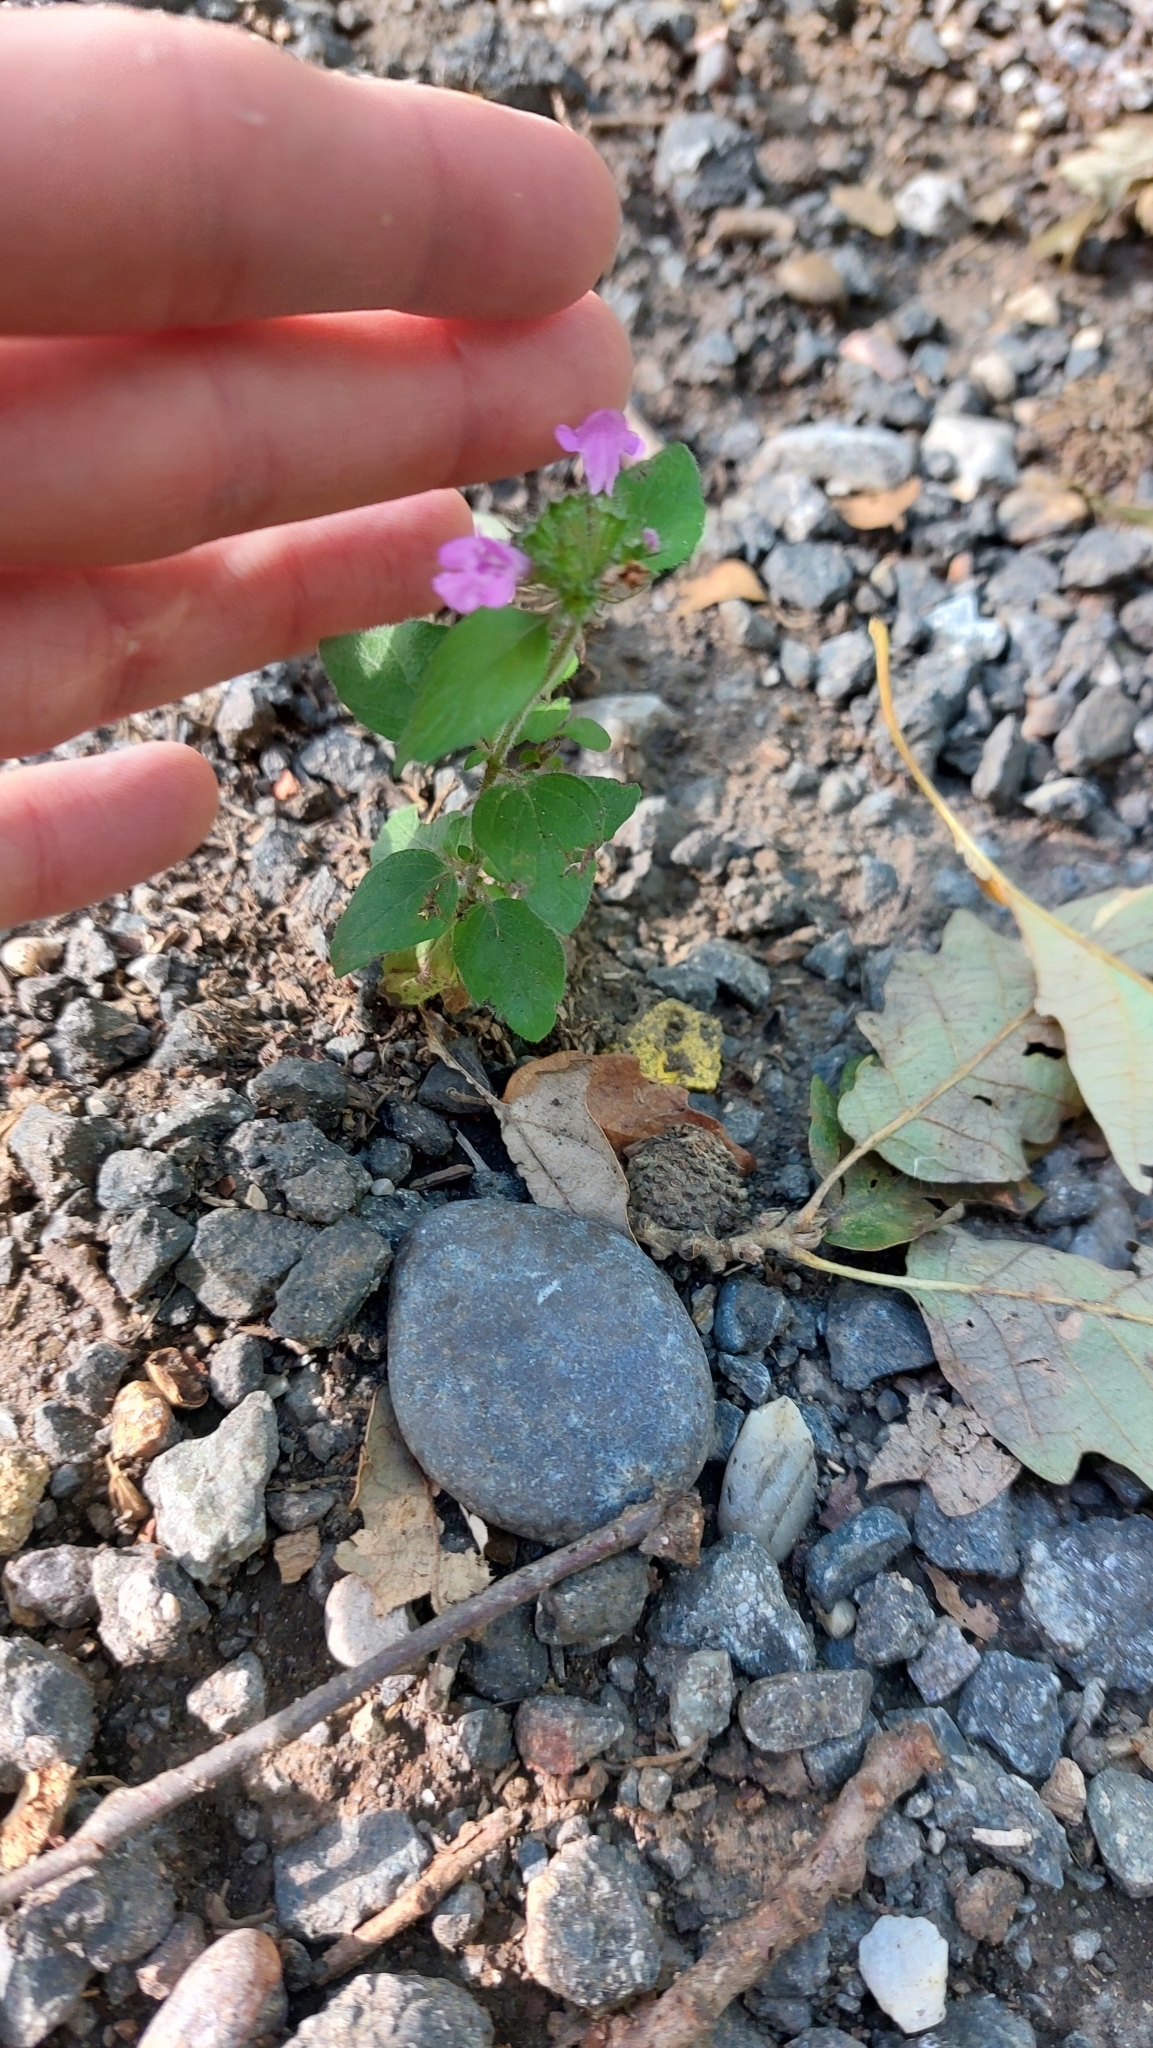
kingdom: Plantae
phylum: Tracheophyta
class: Magnoliopsida
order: Lamiales
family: Lamiaceae
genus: Clinopodium
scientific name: Clinopodium vulgare
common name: Wild basil
